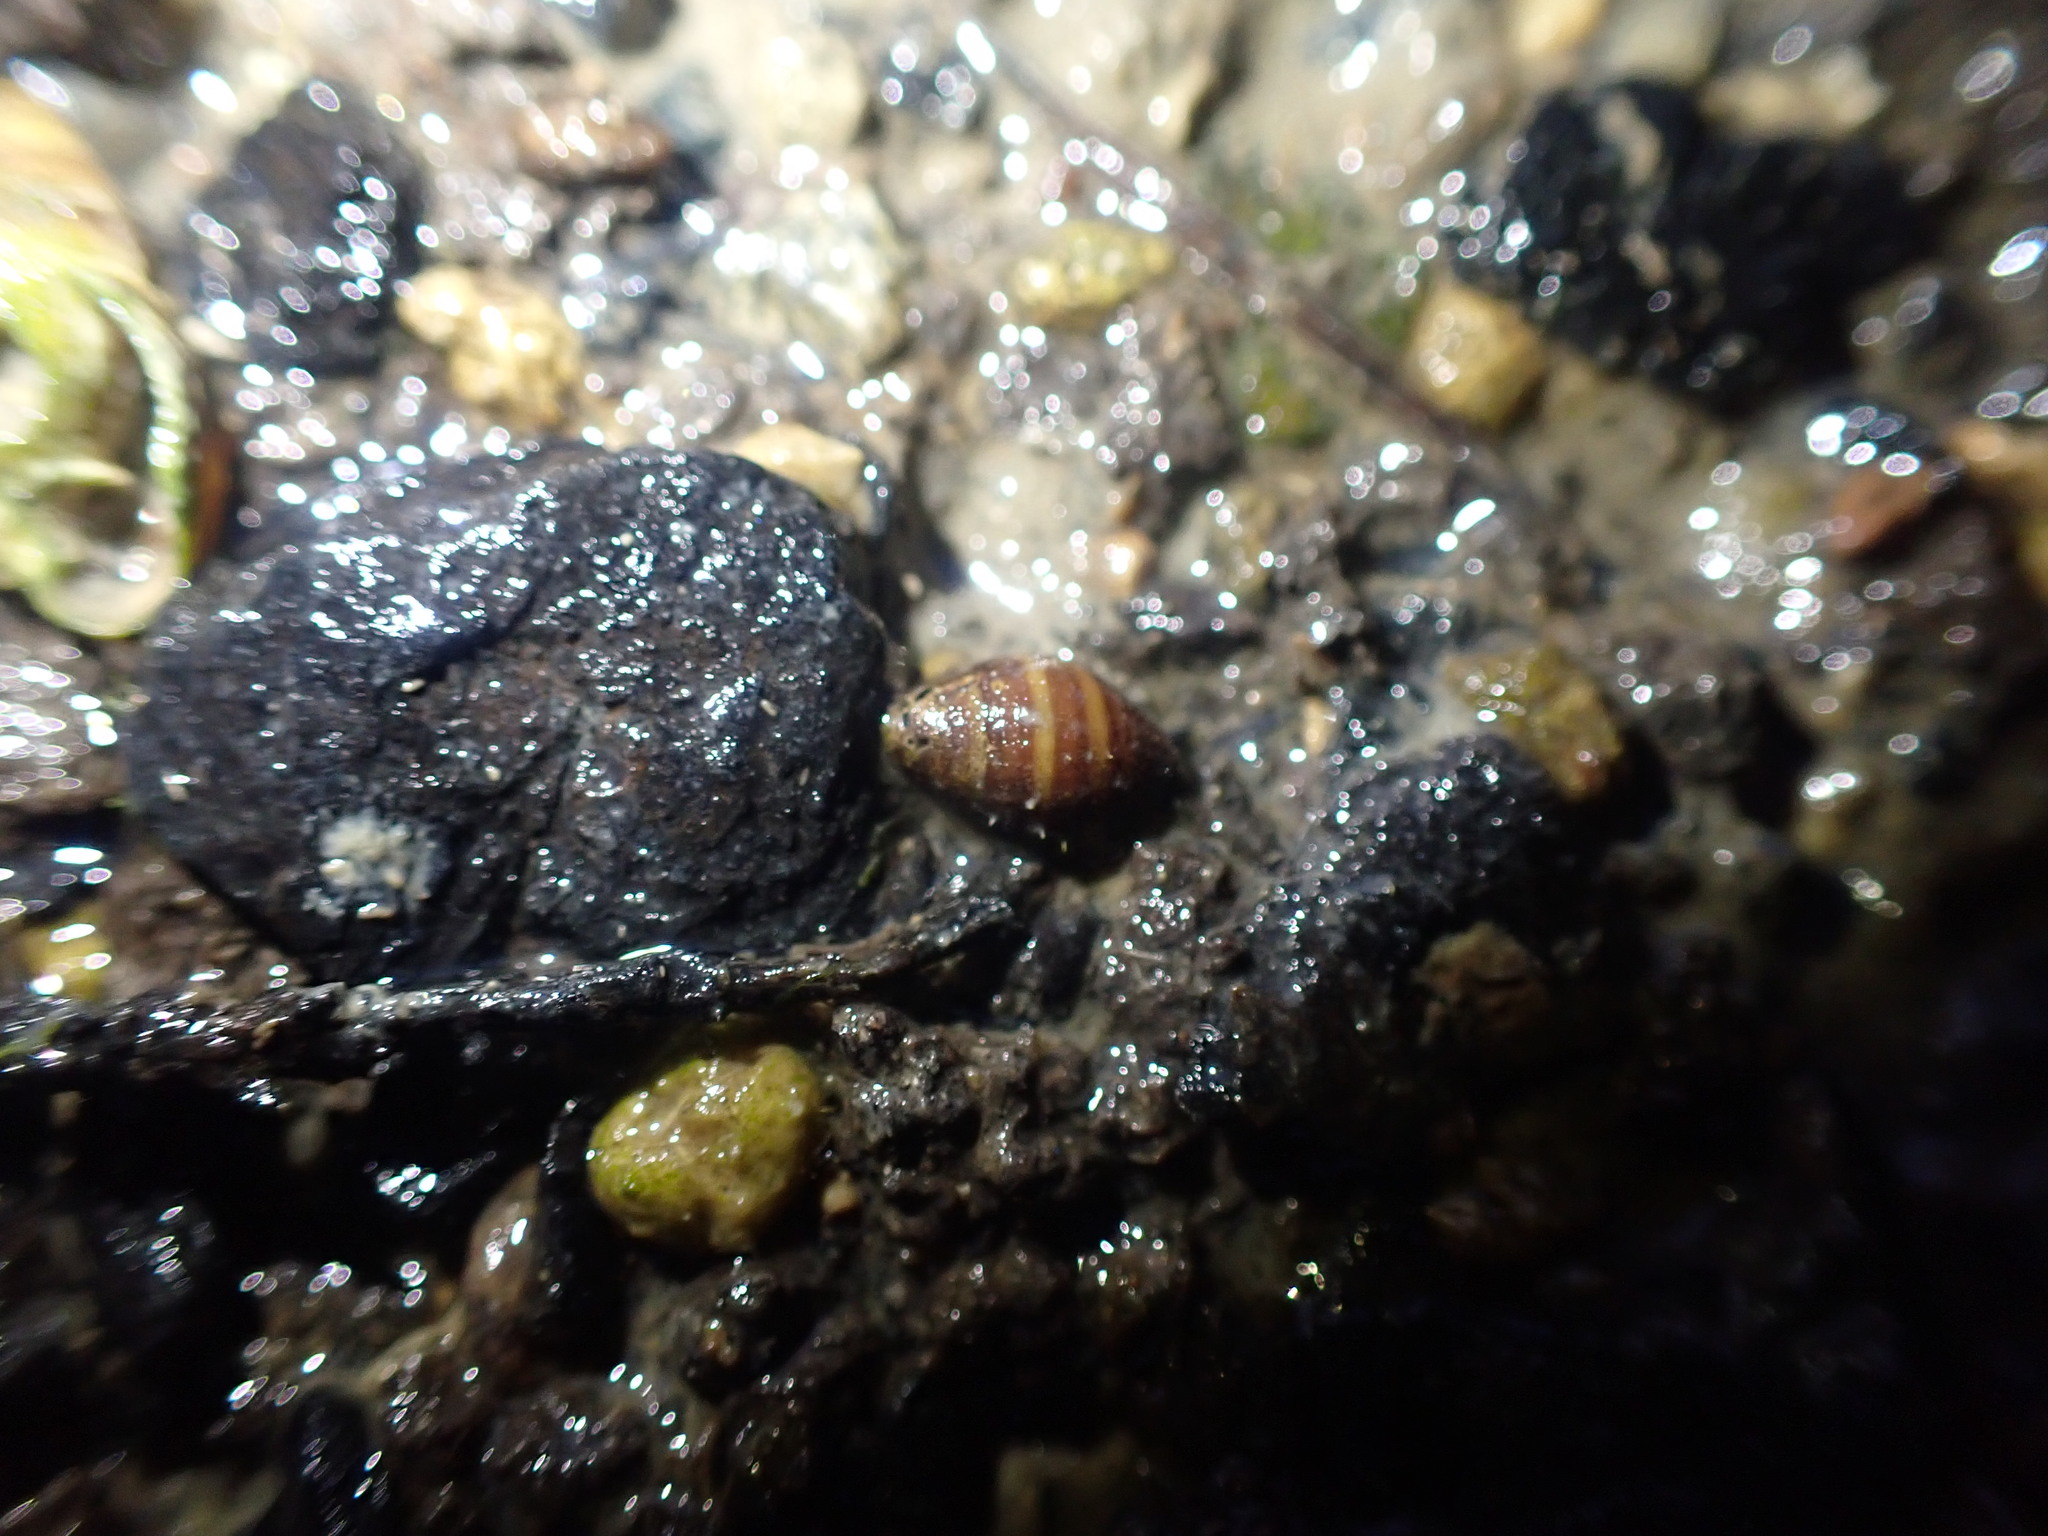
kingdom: Animalia
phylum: Mollusca
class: Gastropoda
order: Ellobiida
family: Ellobiidae
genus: Pleuroloba
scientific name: Pleuroloba costellaris
